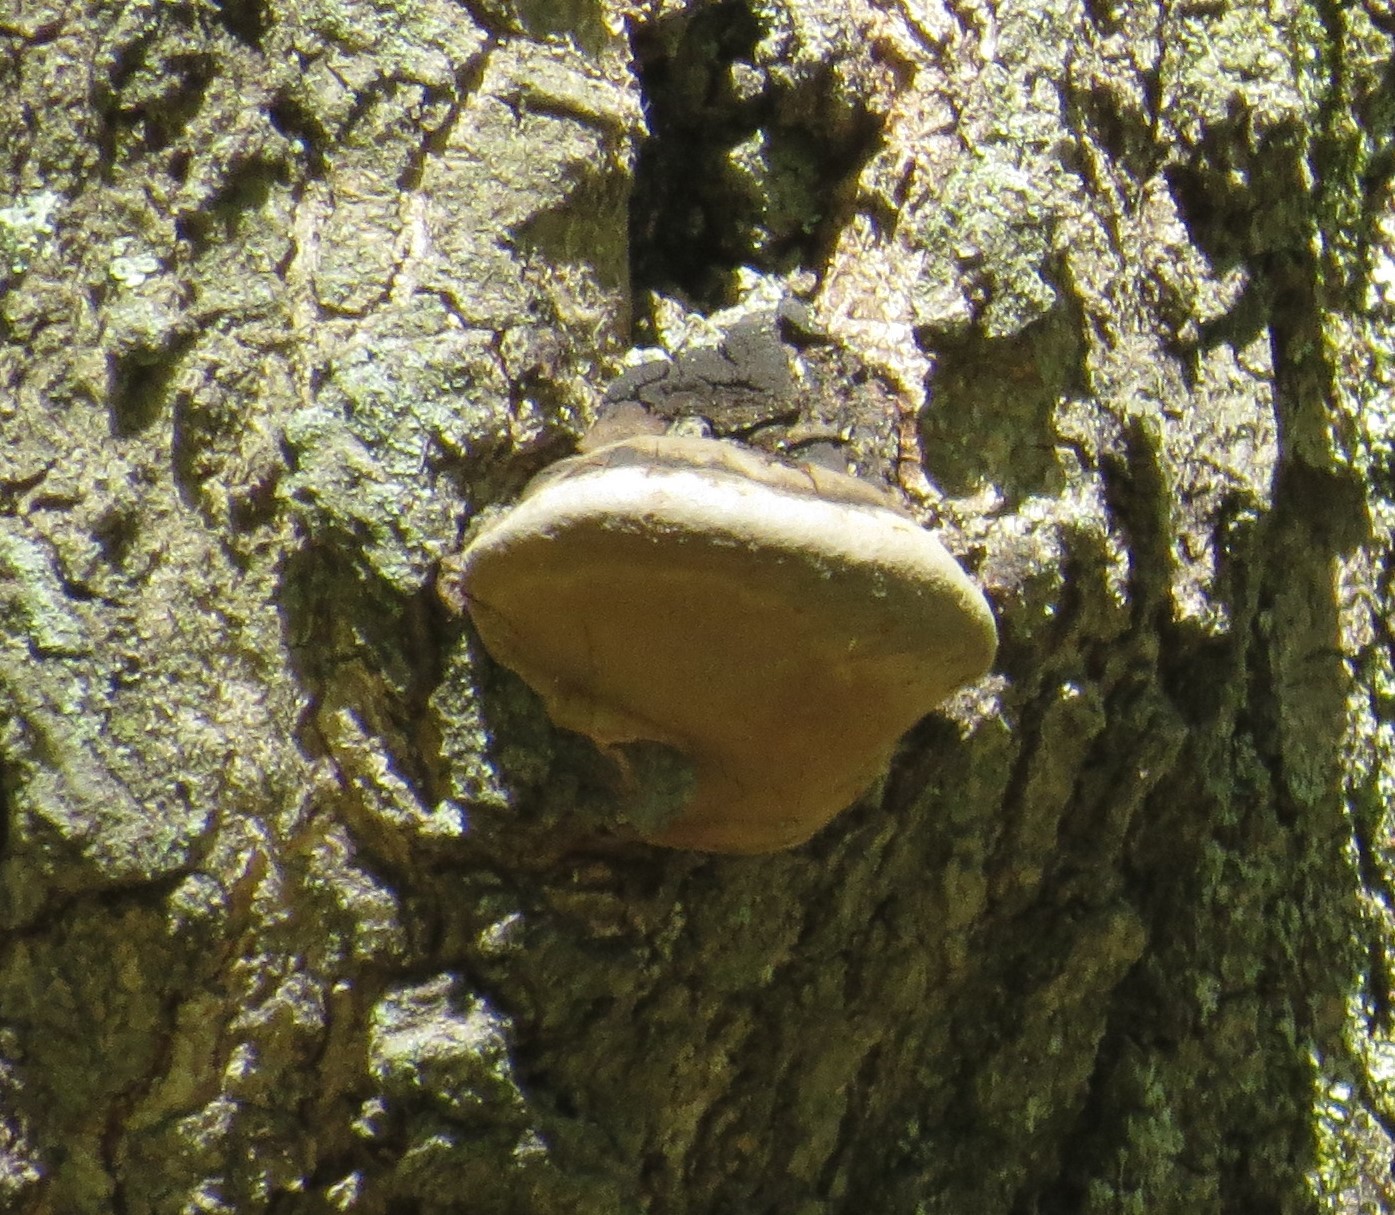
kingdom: Fungi
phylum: Basidiomycota
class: Agaricomycetes
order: Hymenochaetales
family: Hymenochaetaceae
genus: Phellinus
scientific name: Phellinus tremulae
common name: Aspen bracket
